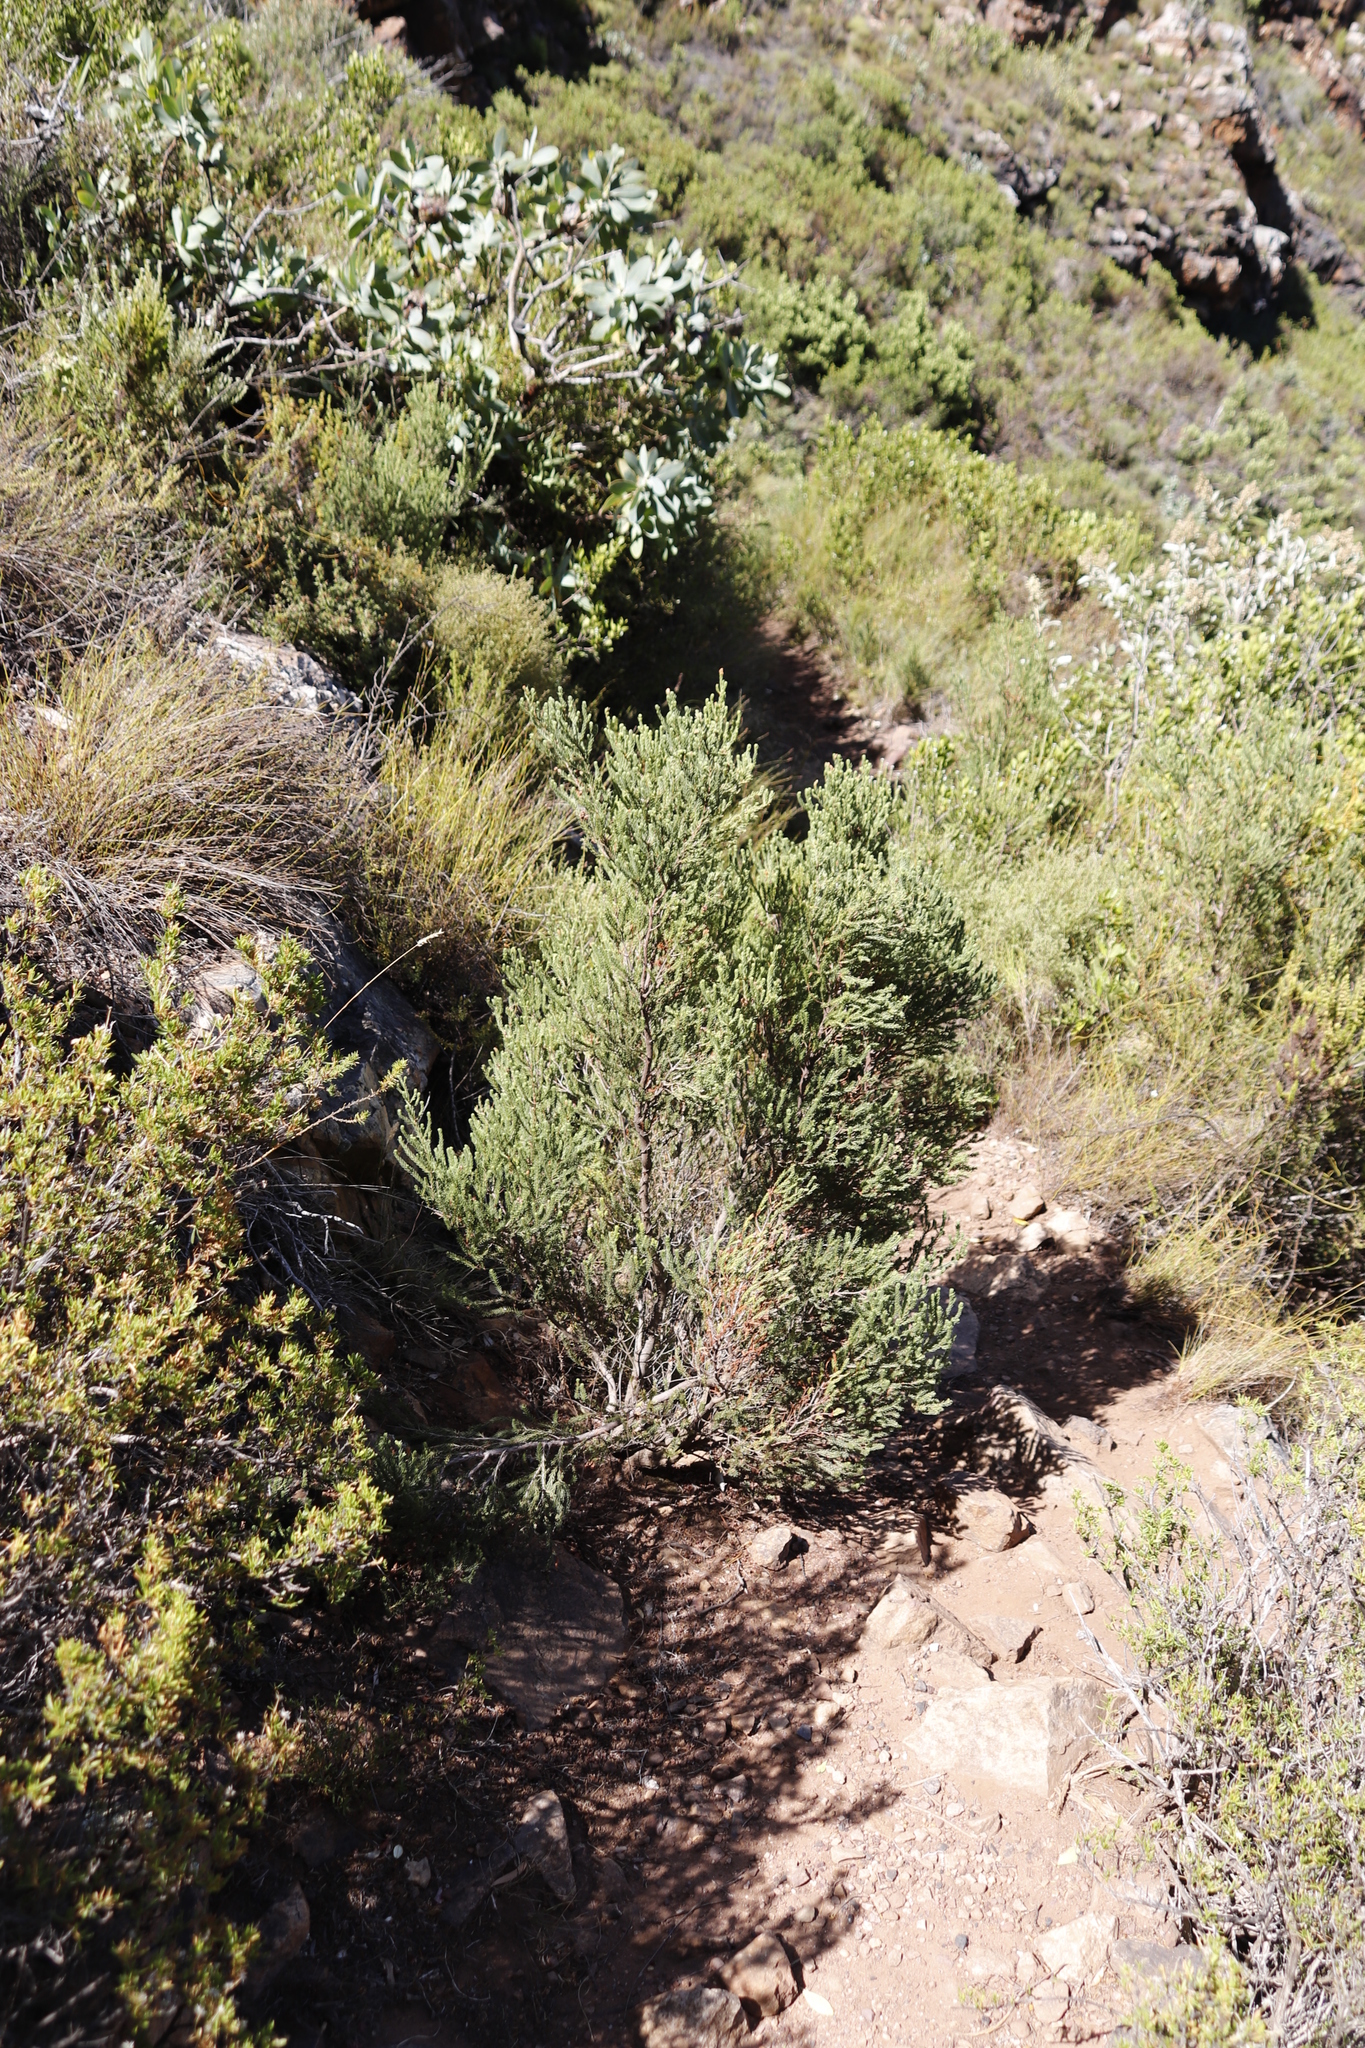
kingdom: Plantae
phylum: Tracheophyta
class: Magnoliopsida
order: Ericales
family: Ericaceae
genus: Erica
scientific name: Erica baccans
